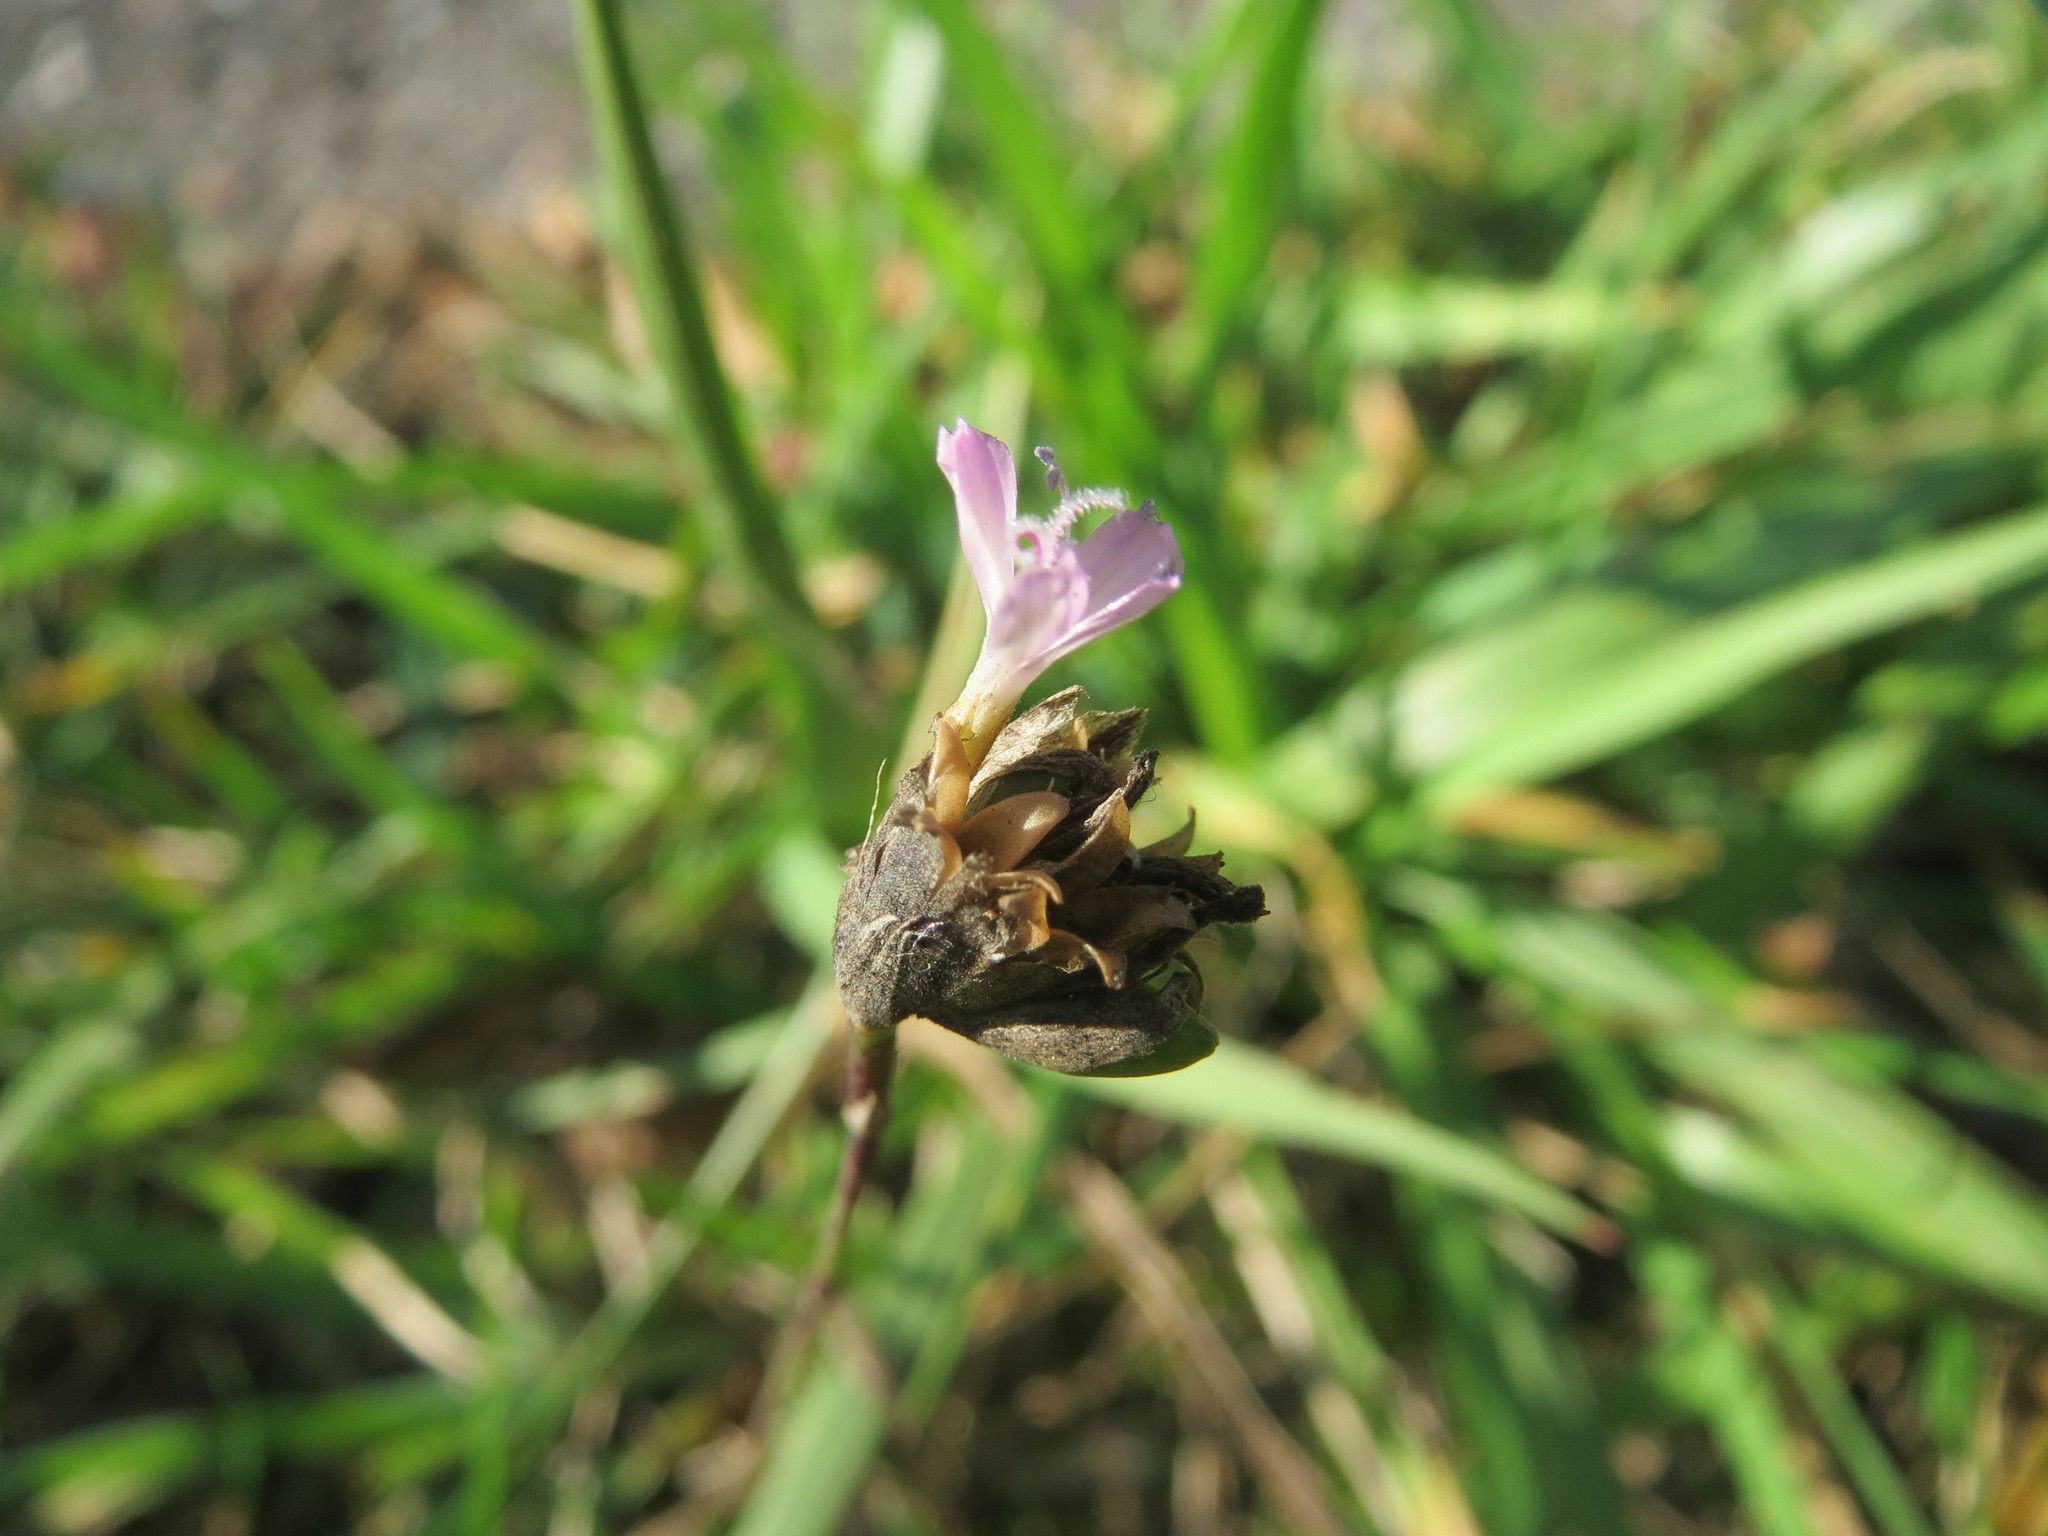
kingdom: Plantae
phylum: Tracheophyta
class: Magnoliopsida
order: Caryophyllales
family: Caryophyllaceae
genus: Petrorhagia
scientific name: Petrorhagia prolifera
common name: Proliferous pink
